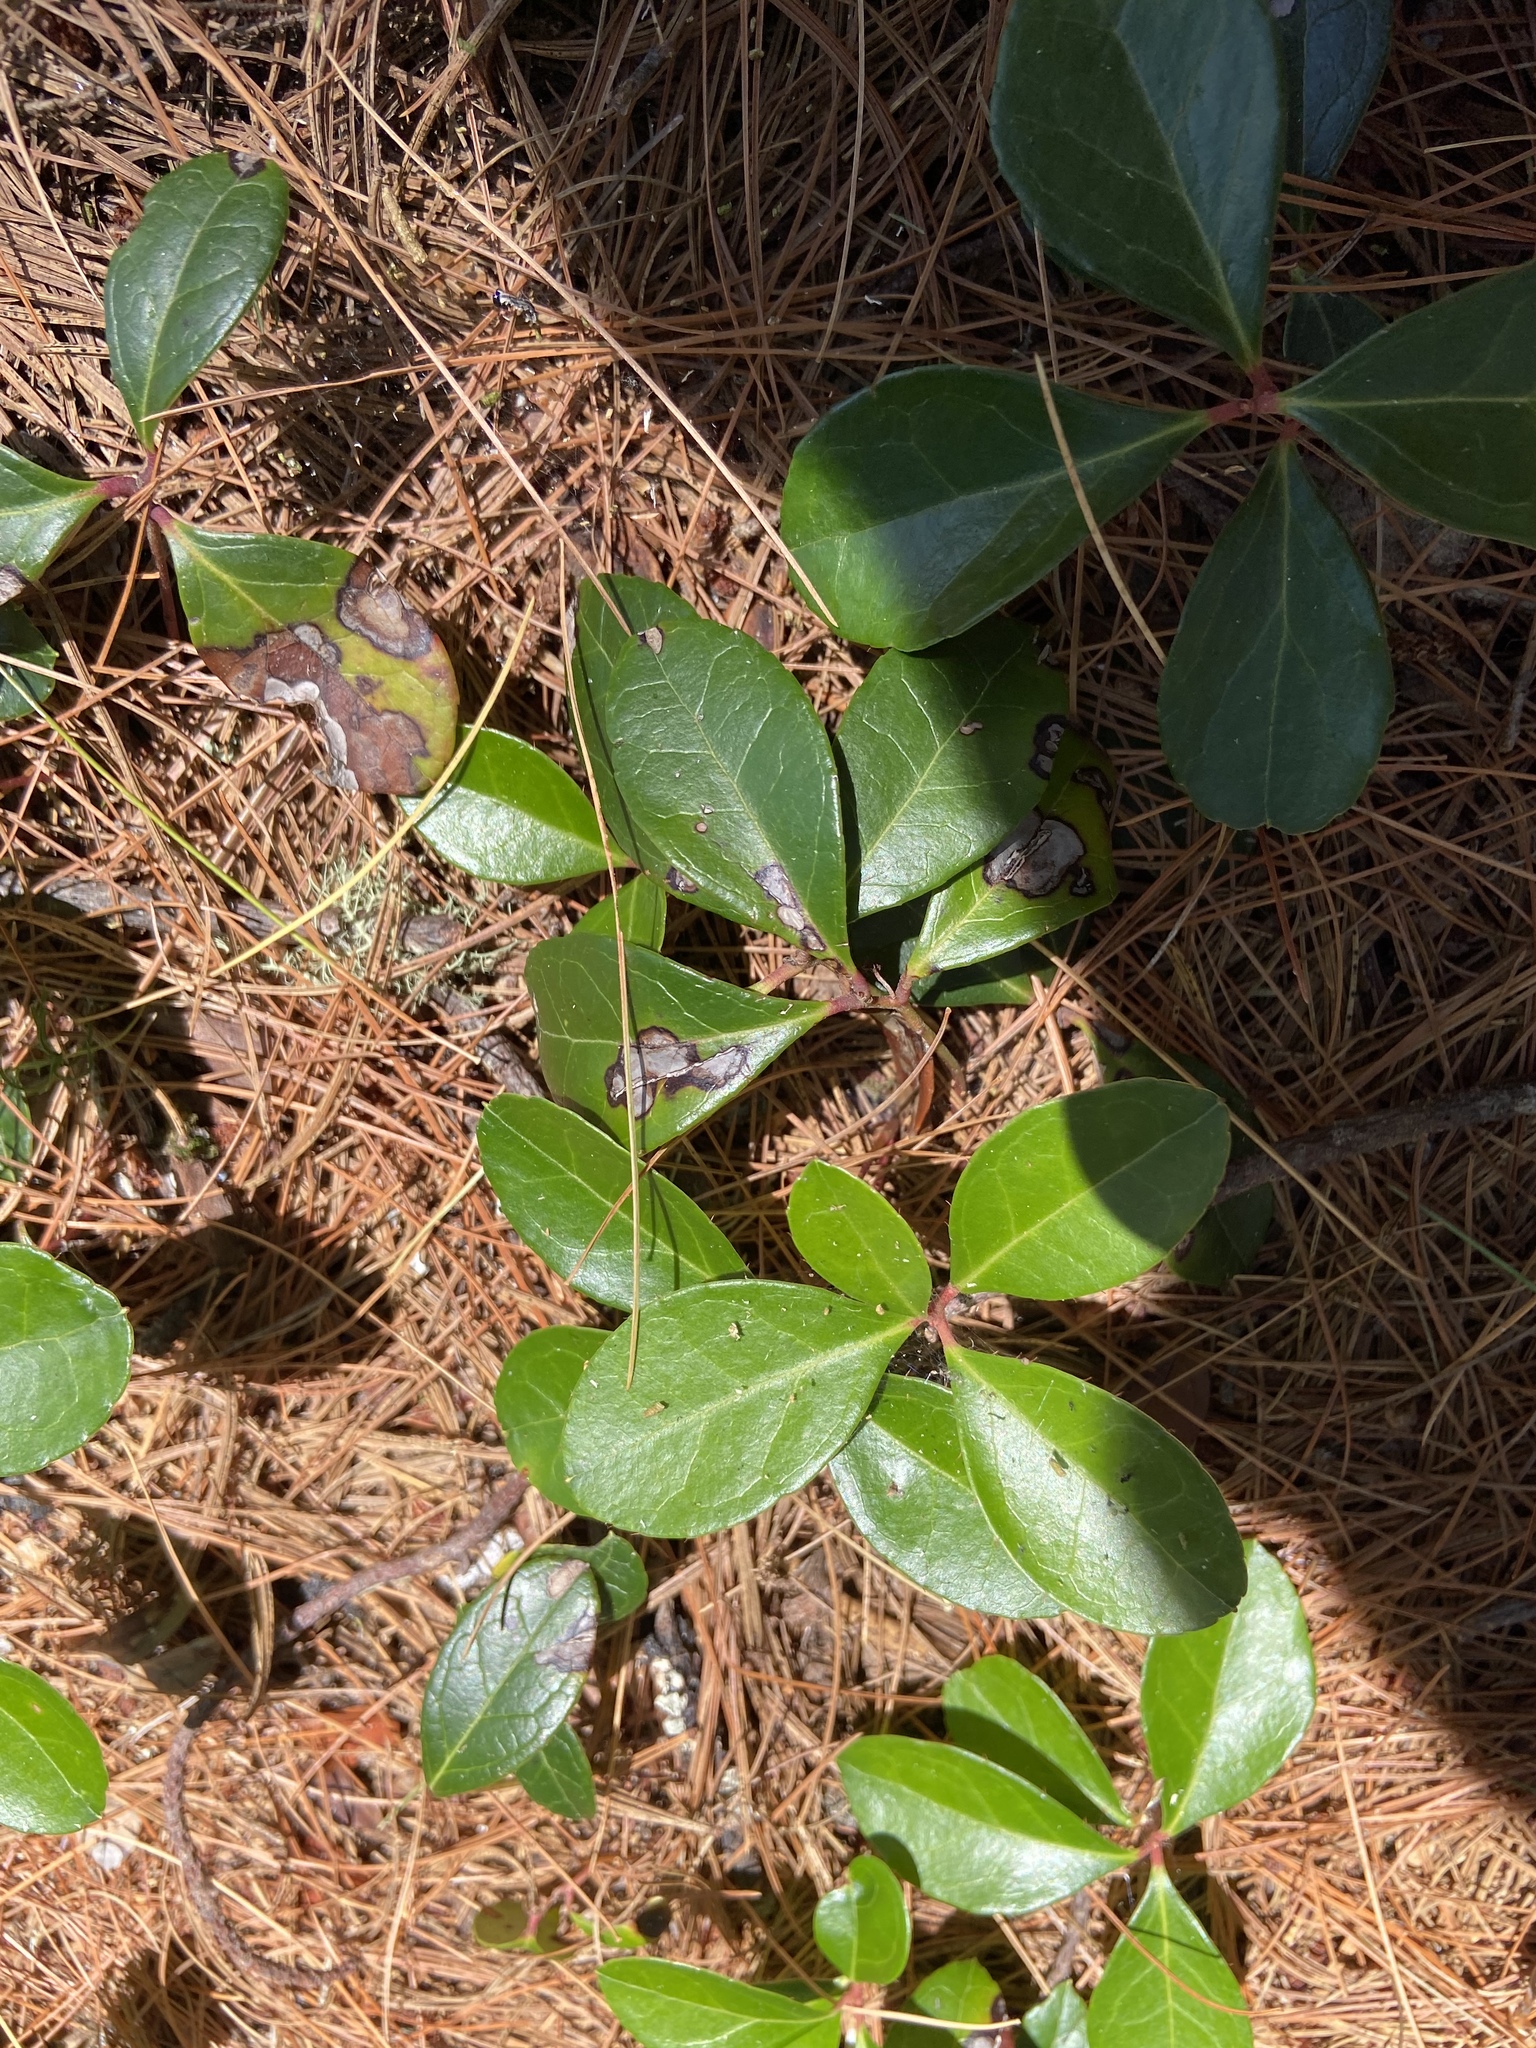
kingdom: Plantae
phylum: Tracheophyta
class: Magnoliopsida
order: Ericales
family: Ericaceae
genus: Gaultheria
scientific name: Gaultheria procumbens
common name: Checkerberry
